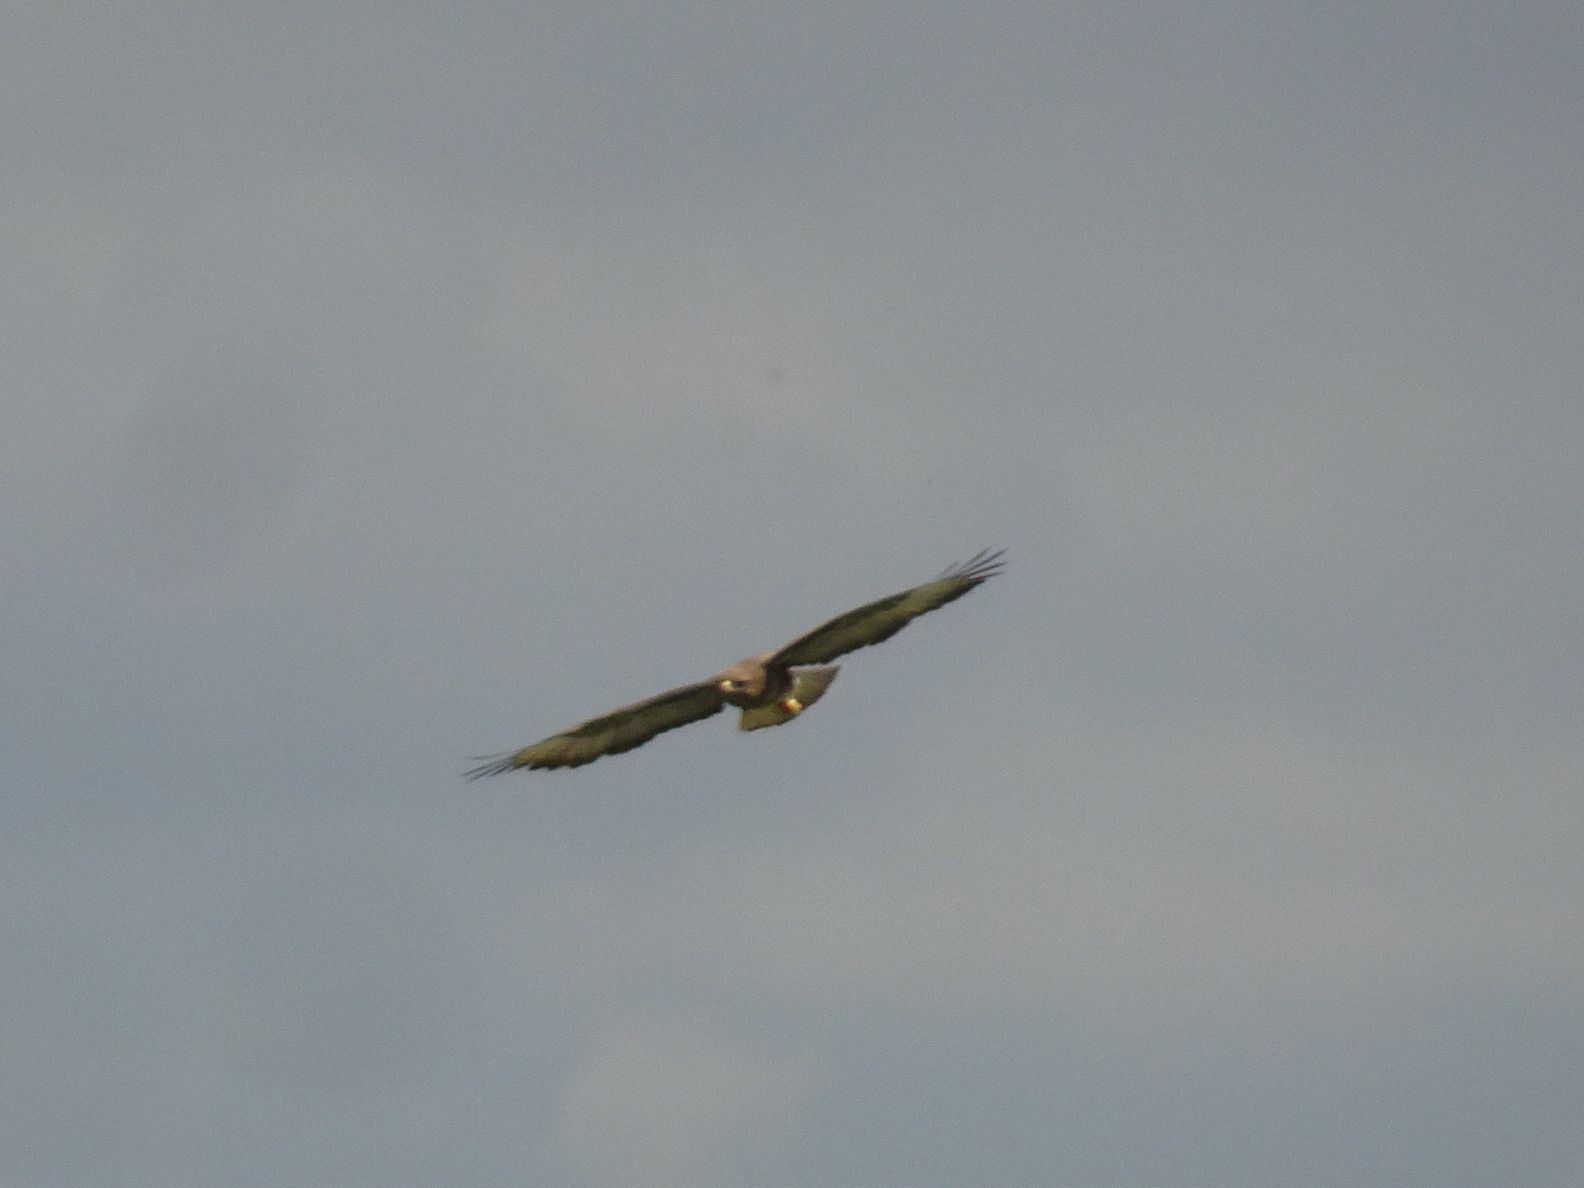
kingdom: Animalia
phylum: Chordata
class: Aves
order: Accipitriformes
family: Accipitridae
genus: Buteo
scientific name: Buteo buteo
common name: Common buzzard
